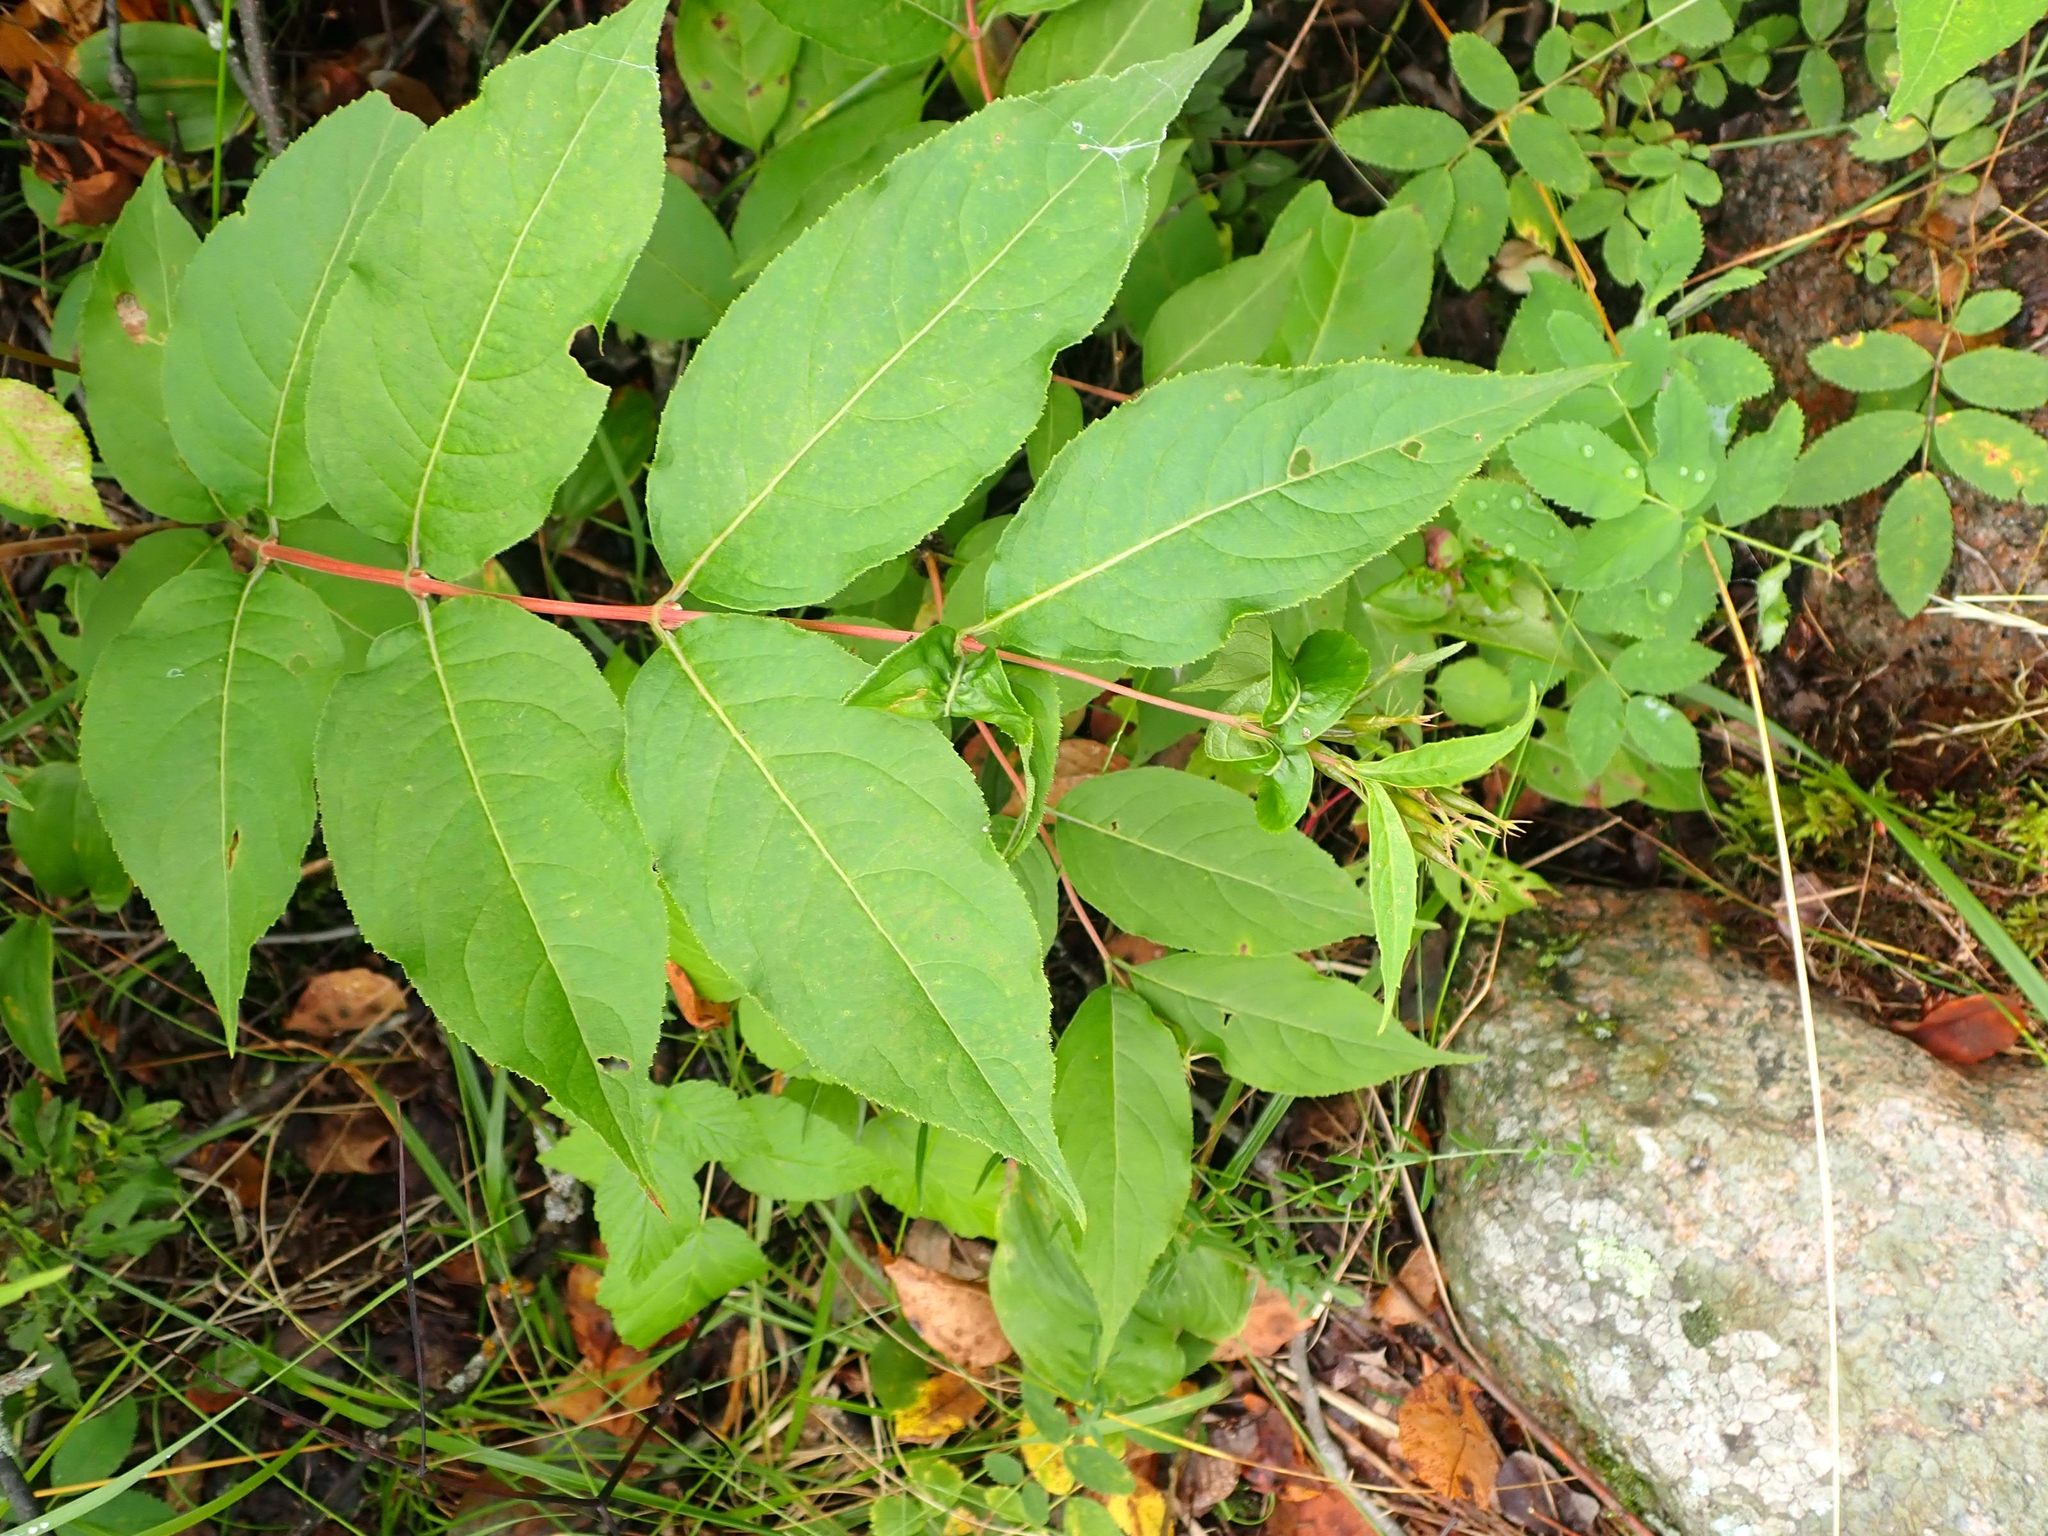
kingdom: Plantae
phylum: Tracheophyta
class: Magnoliopsida
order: Dipsacales
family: Caprifoliaceae
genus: Diervilla
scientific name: Diervilla lonicera
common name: Bush-honeysuckle
